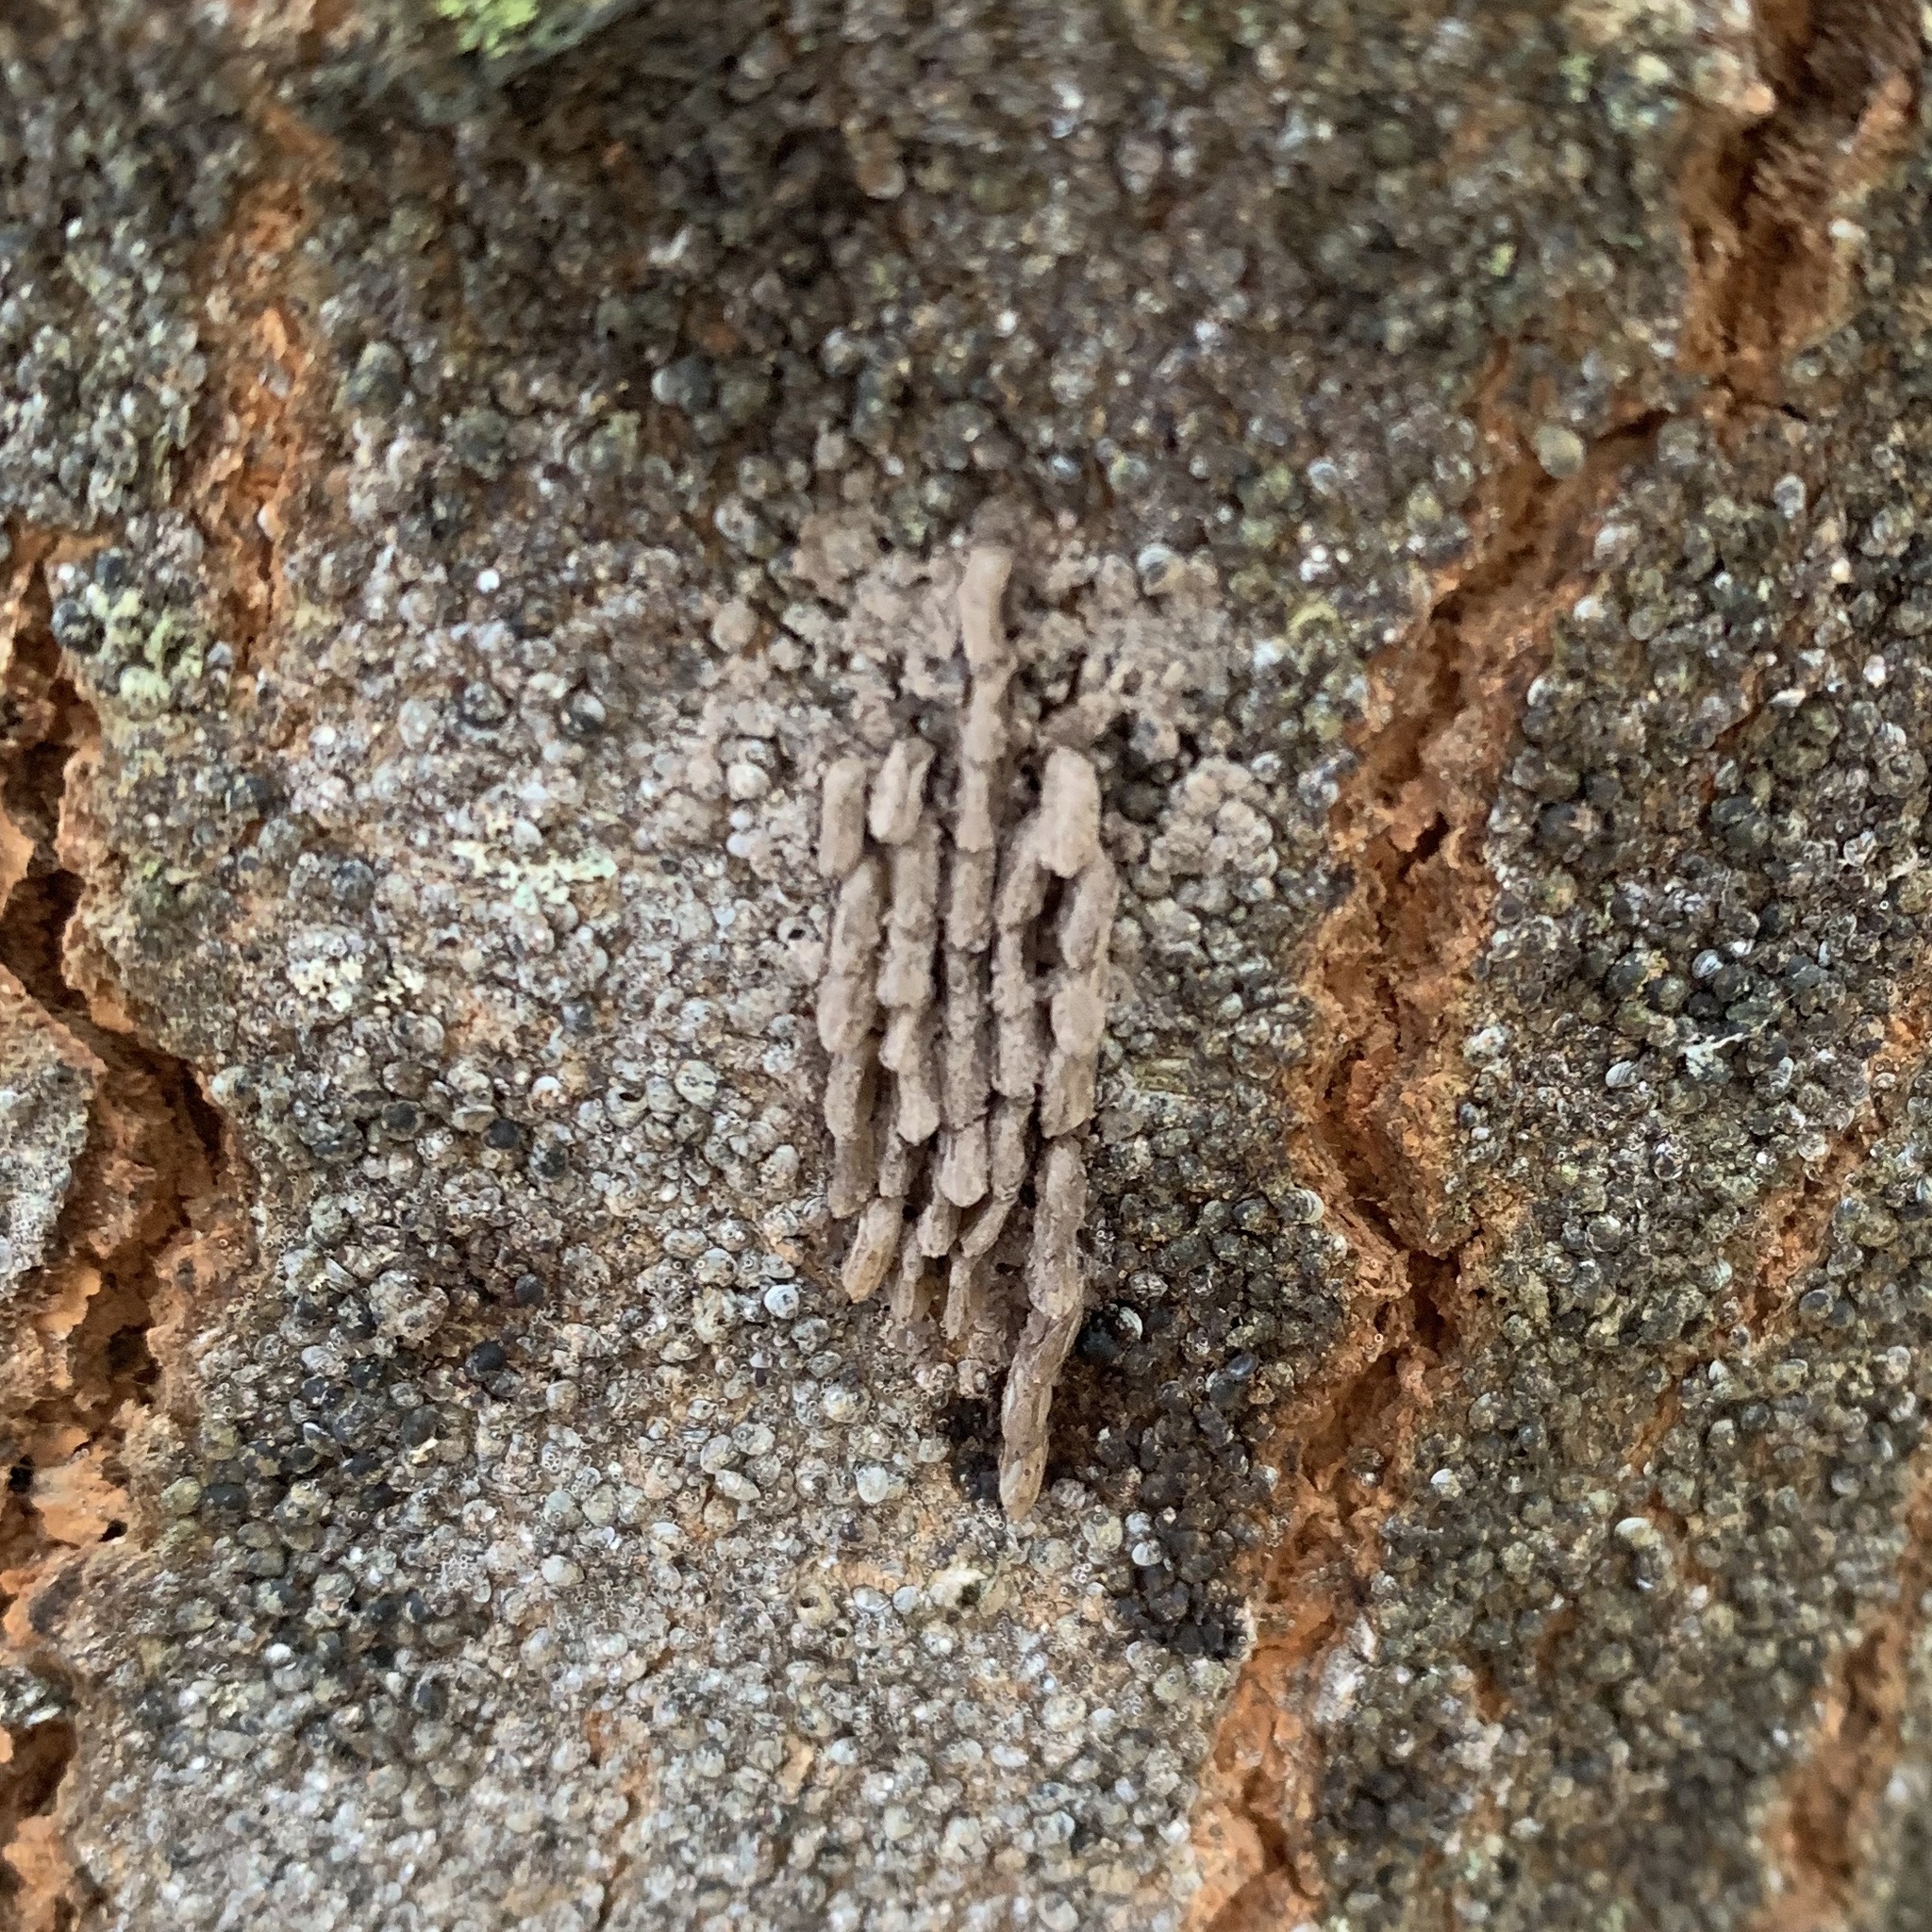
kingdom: Animalia
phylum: Arthropoda
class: Insecta
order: Hemiptera
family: Fulgoridae
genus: Lycorma
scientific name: Lycorma delicatula
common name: Spotted lanternfly
